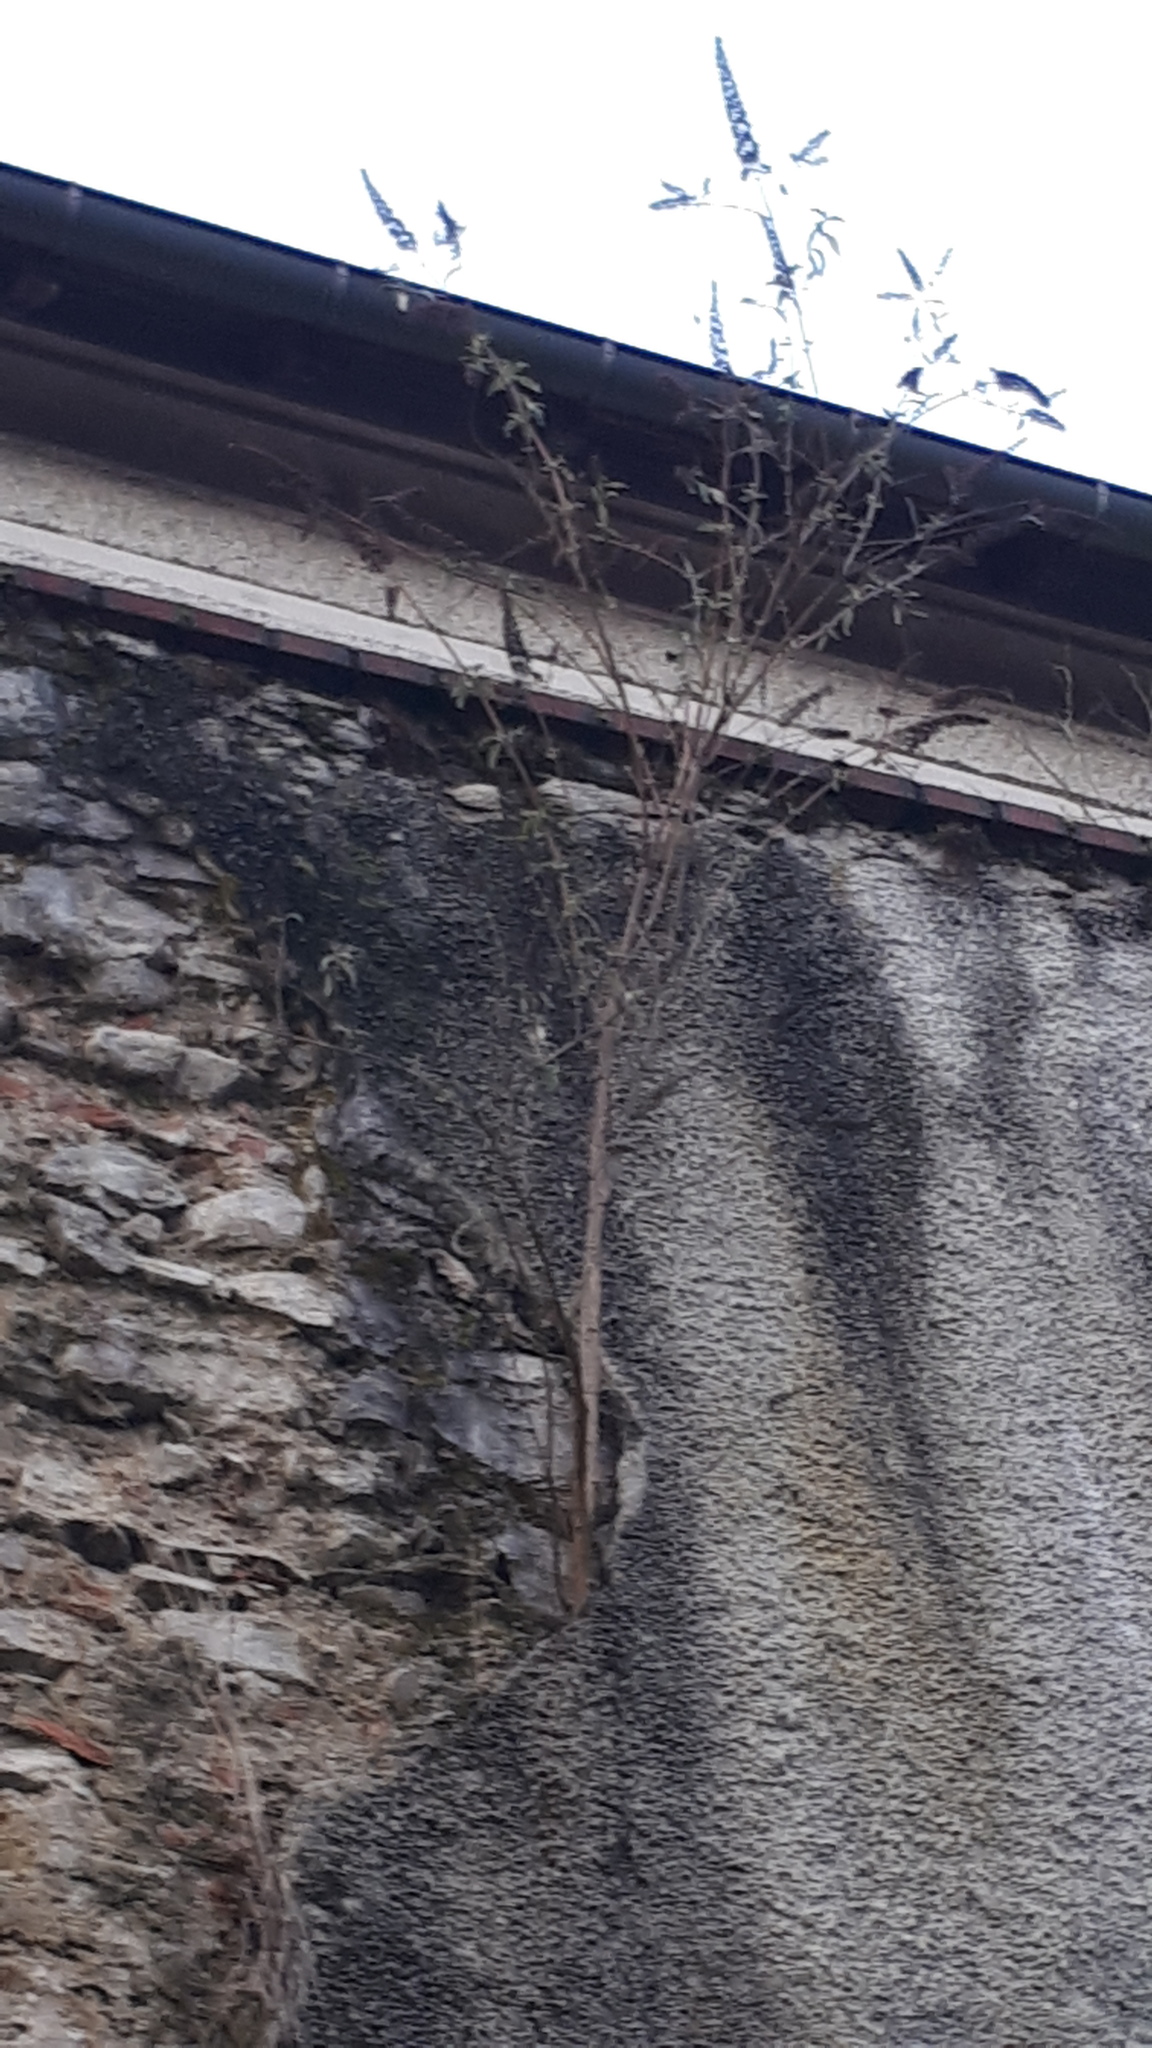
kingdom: Plantae
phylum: Tracheophyta
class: Magnoliopsida
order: Lamiales
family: Scrophulariaceae
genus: Buddleja
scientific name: Buddleja davidii
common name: Butterfly-bush
